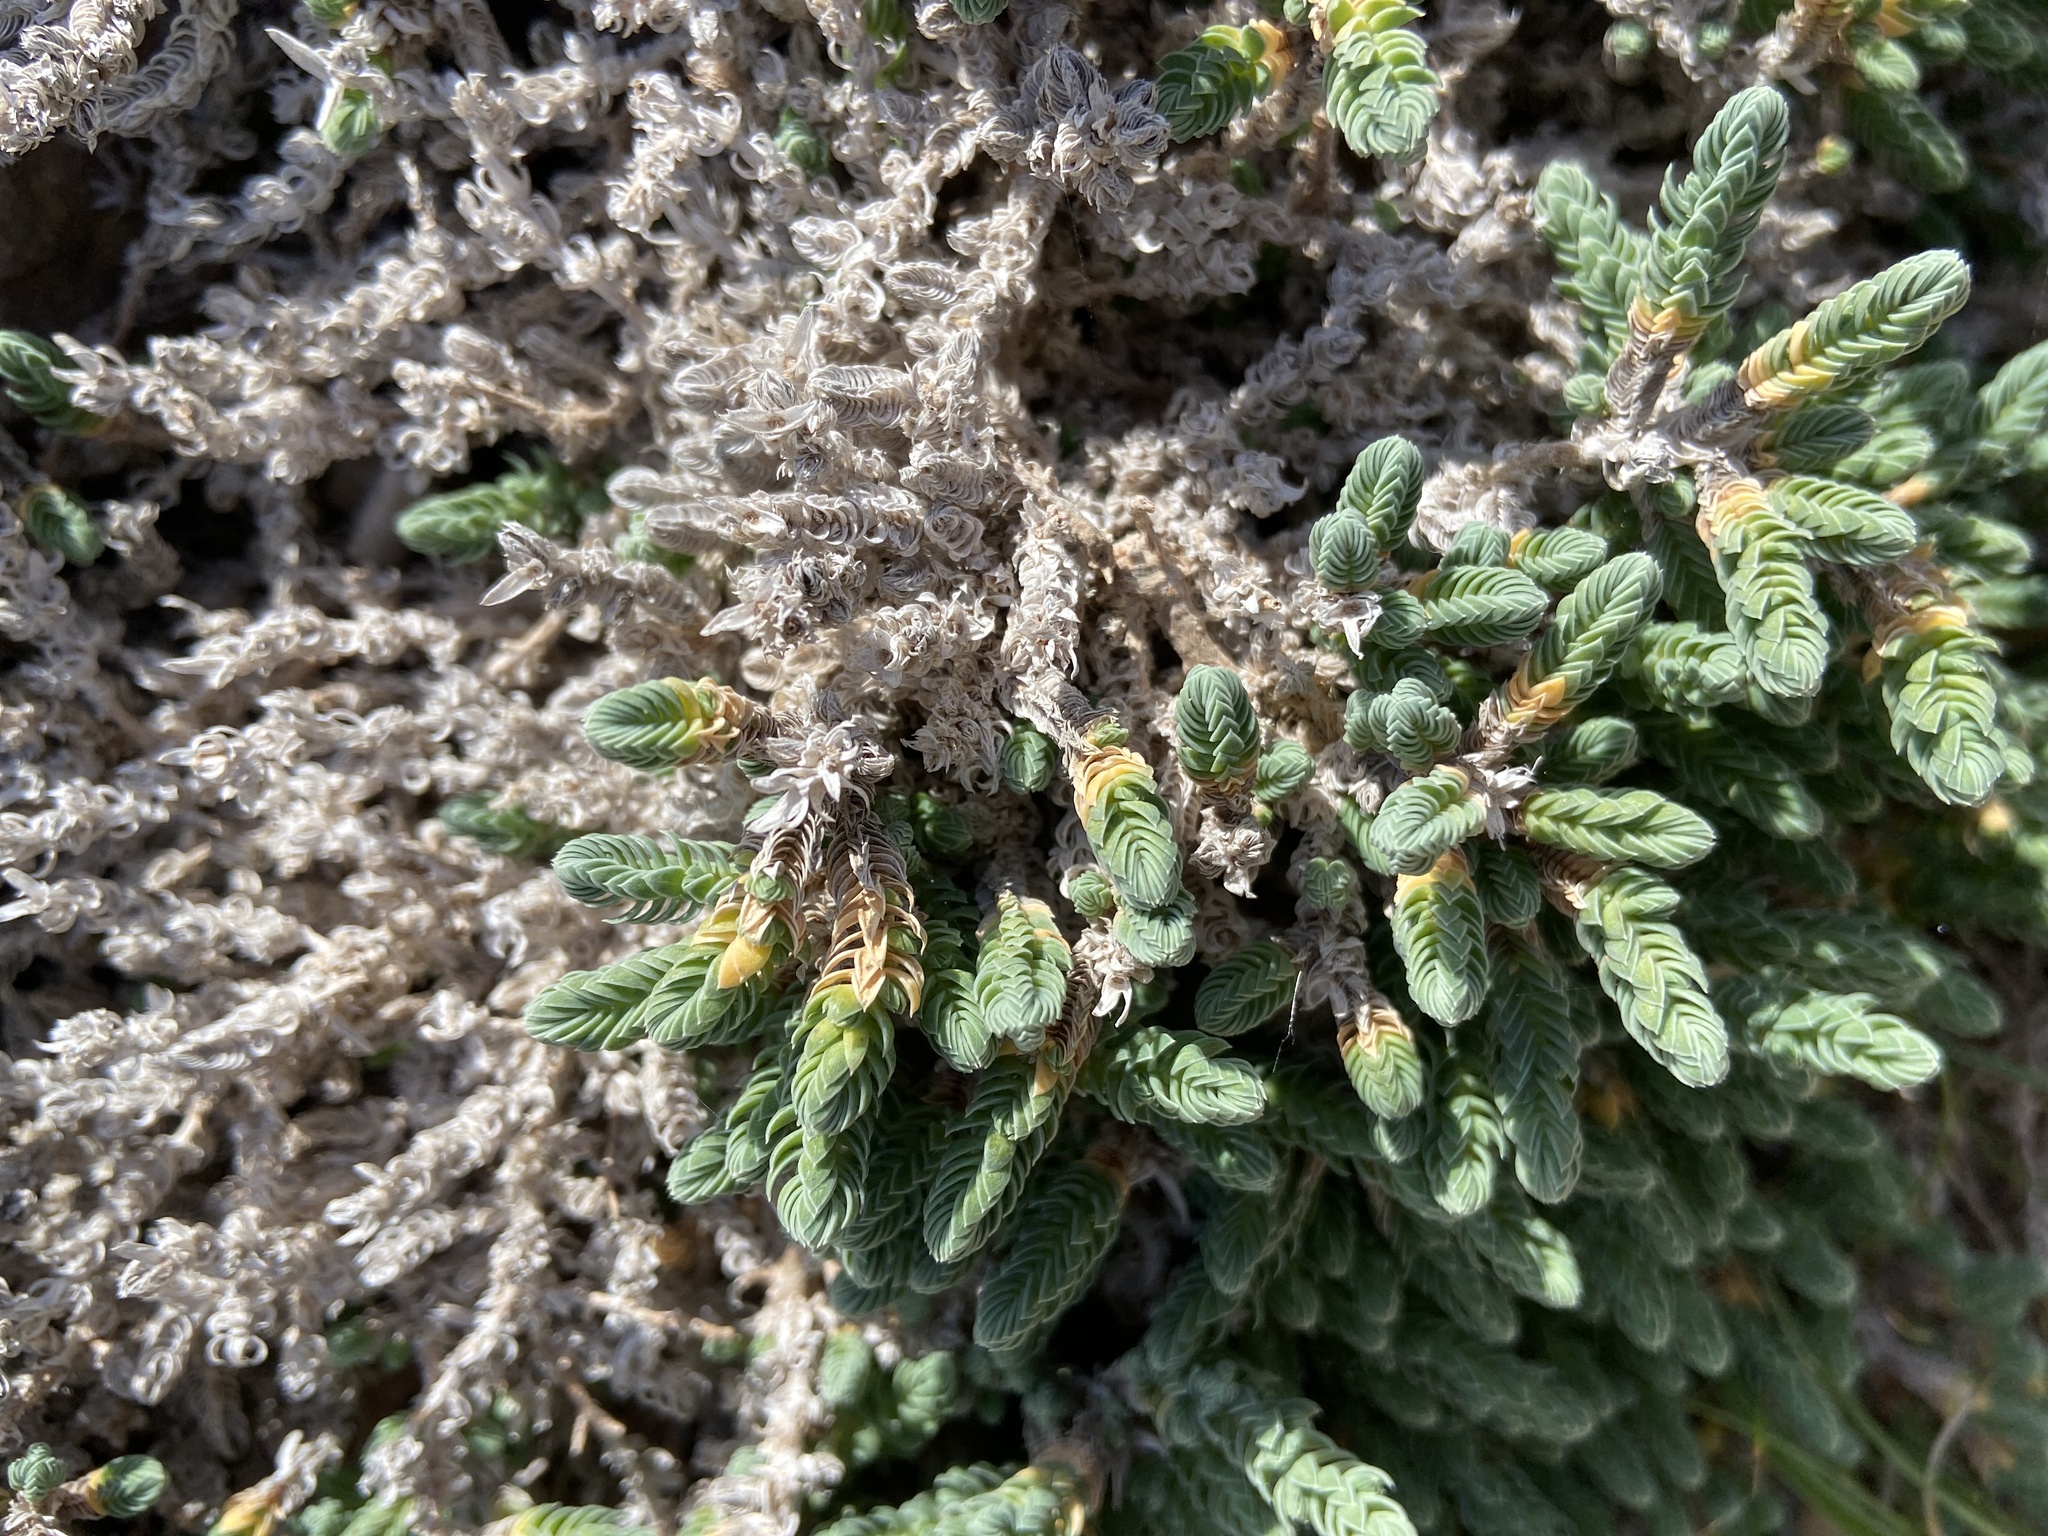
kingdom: Plantae
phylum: Tracheophyta
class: Magnoliopsida
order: Gentianales
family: Rubiaceae
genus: Crucianella
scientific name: Crucianella maritima
